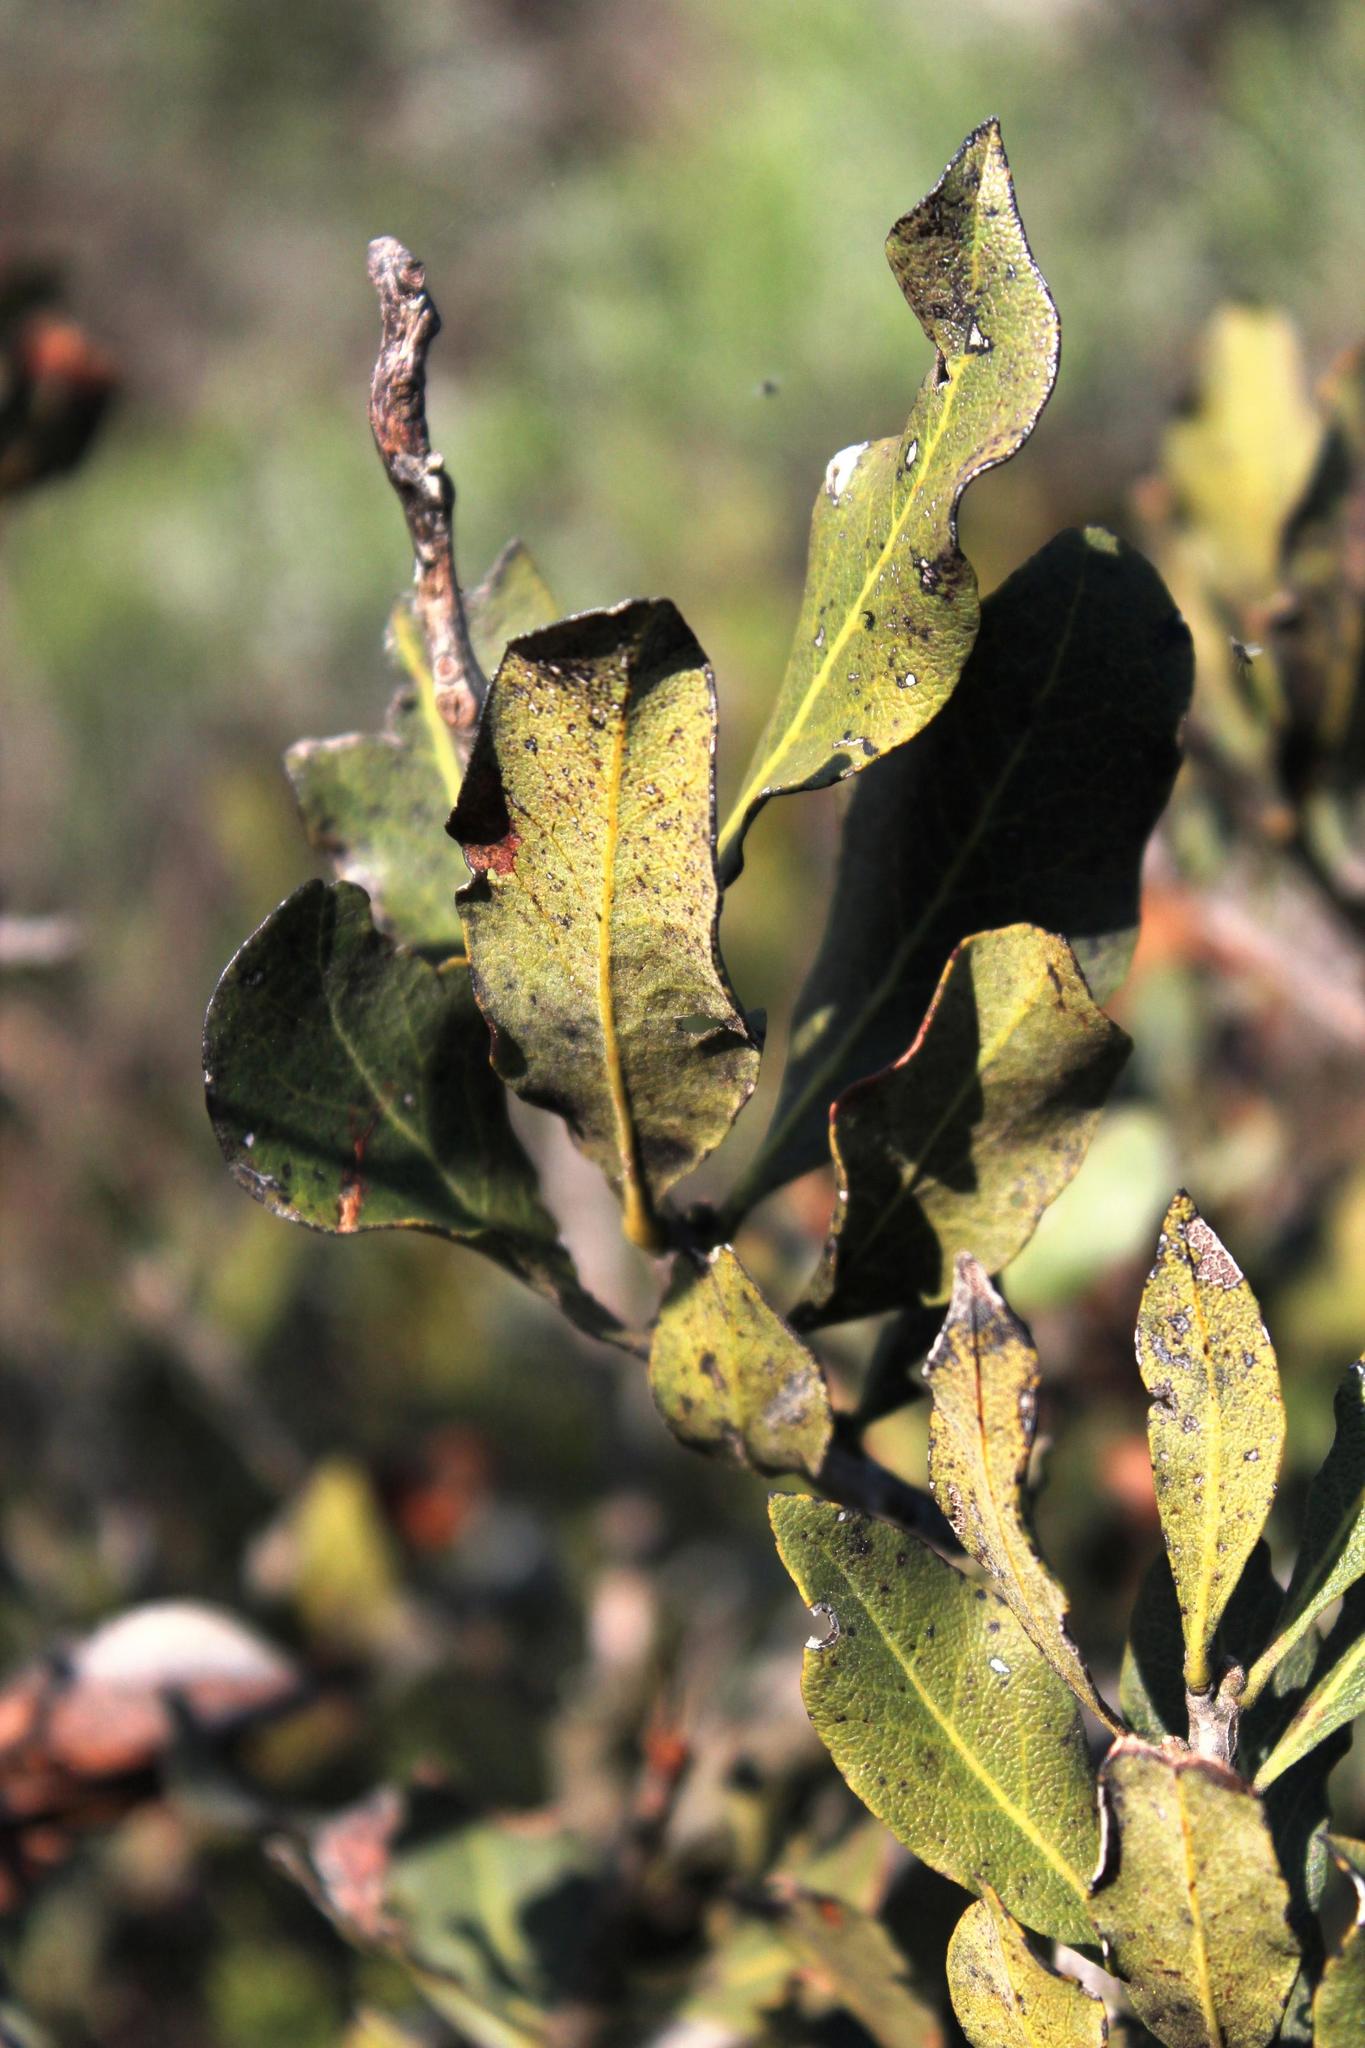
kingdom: Plantae
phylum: Tracheophyta
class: Magnoliopsida
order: Ericales
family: Ebenaceae
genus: Euclea
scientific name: Euclea tomentosa
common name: Honey guarri
